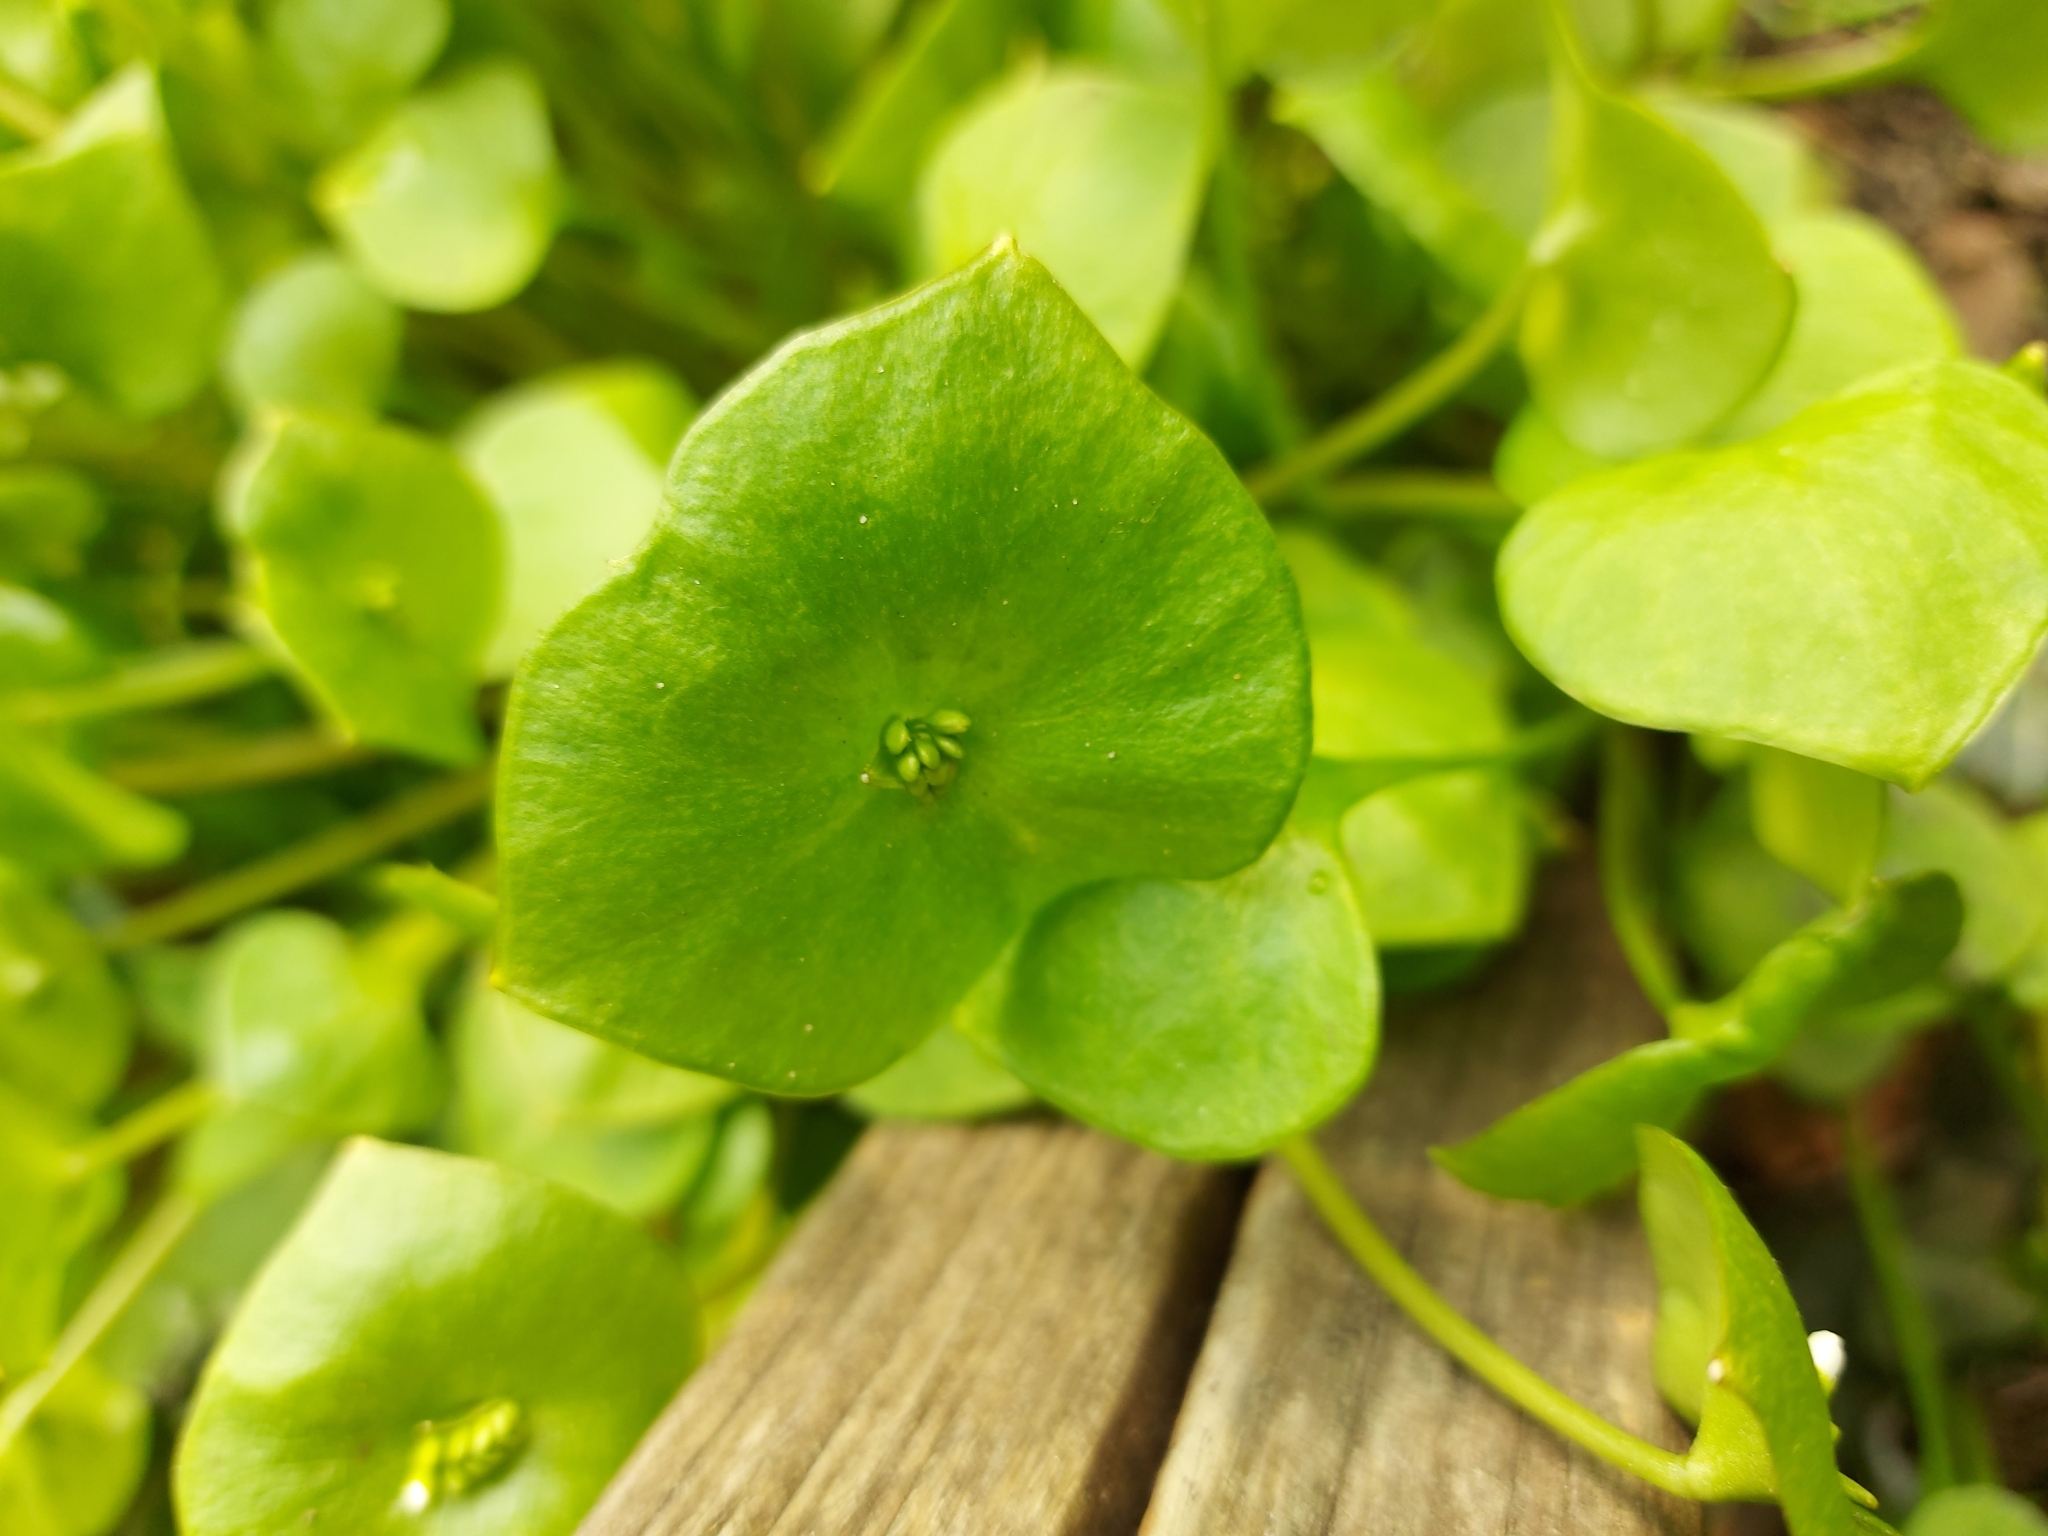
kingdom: Plantae
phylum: Tracheophyta
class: Magnoliopsida
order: Caryophyllales
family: Montiaceae
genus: Claytonia
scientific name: Claytonia perfoliata
